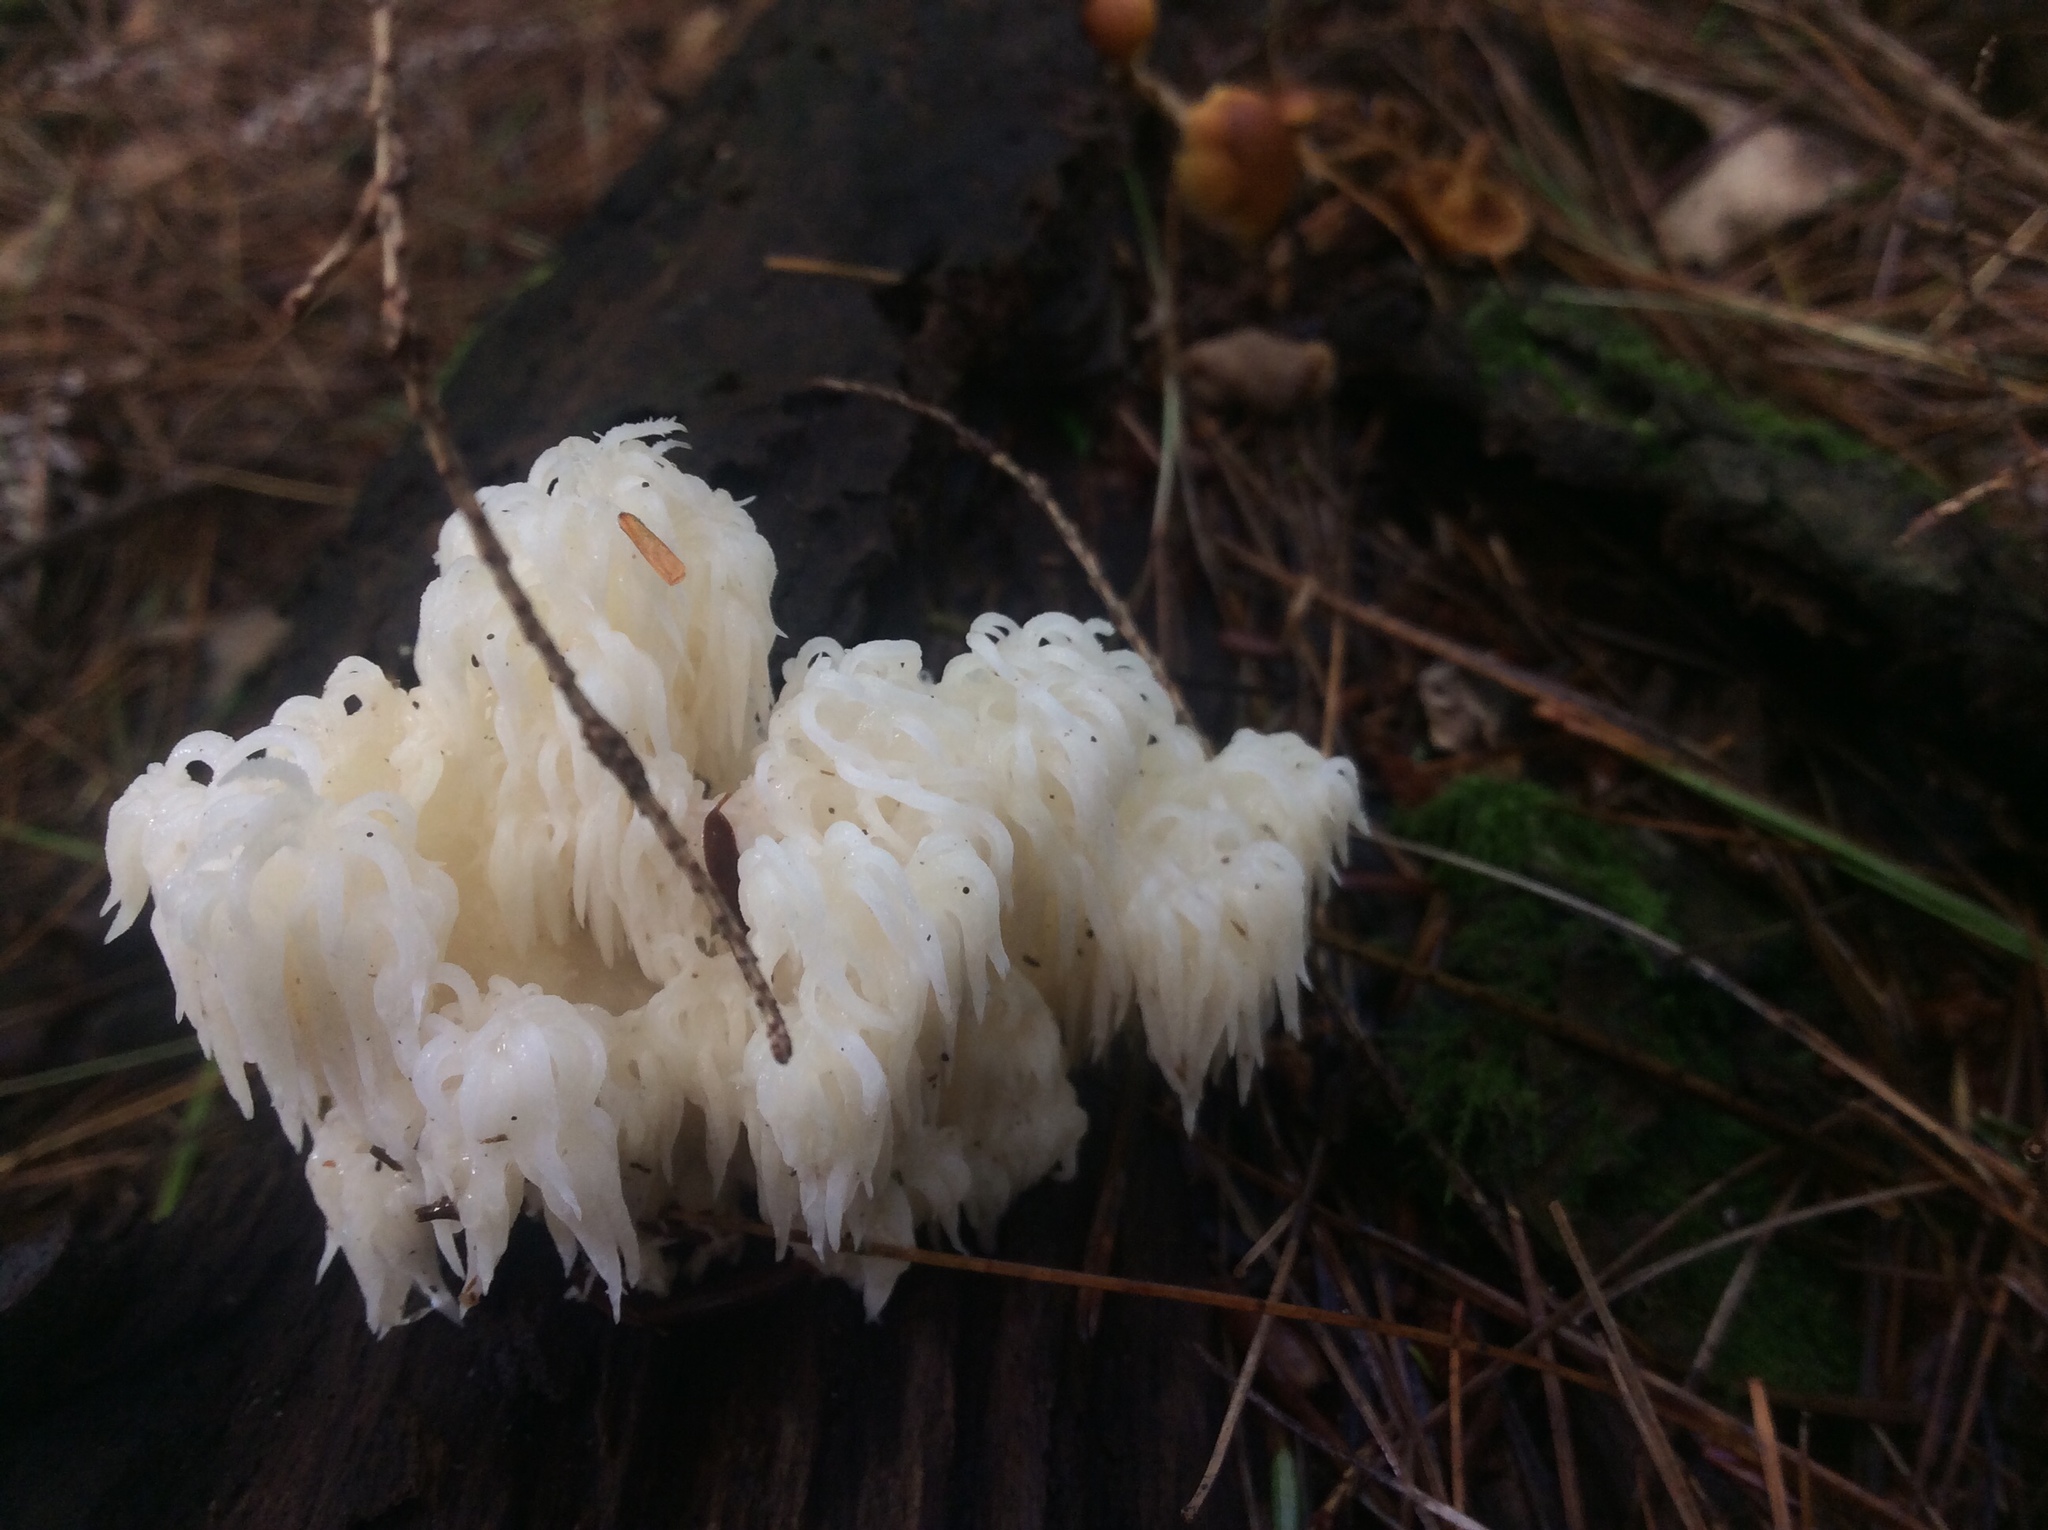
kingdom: Fungi
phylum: Basidiomycota
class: Agaricomycetes
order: Russulales
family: Hericiaceae
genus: Hericium
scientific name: Hericium americanum
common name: Bear's head tooth
